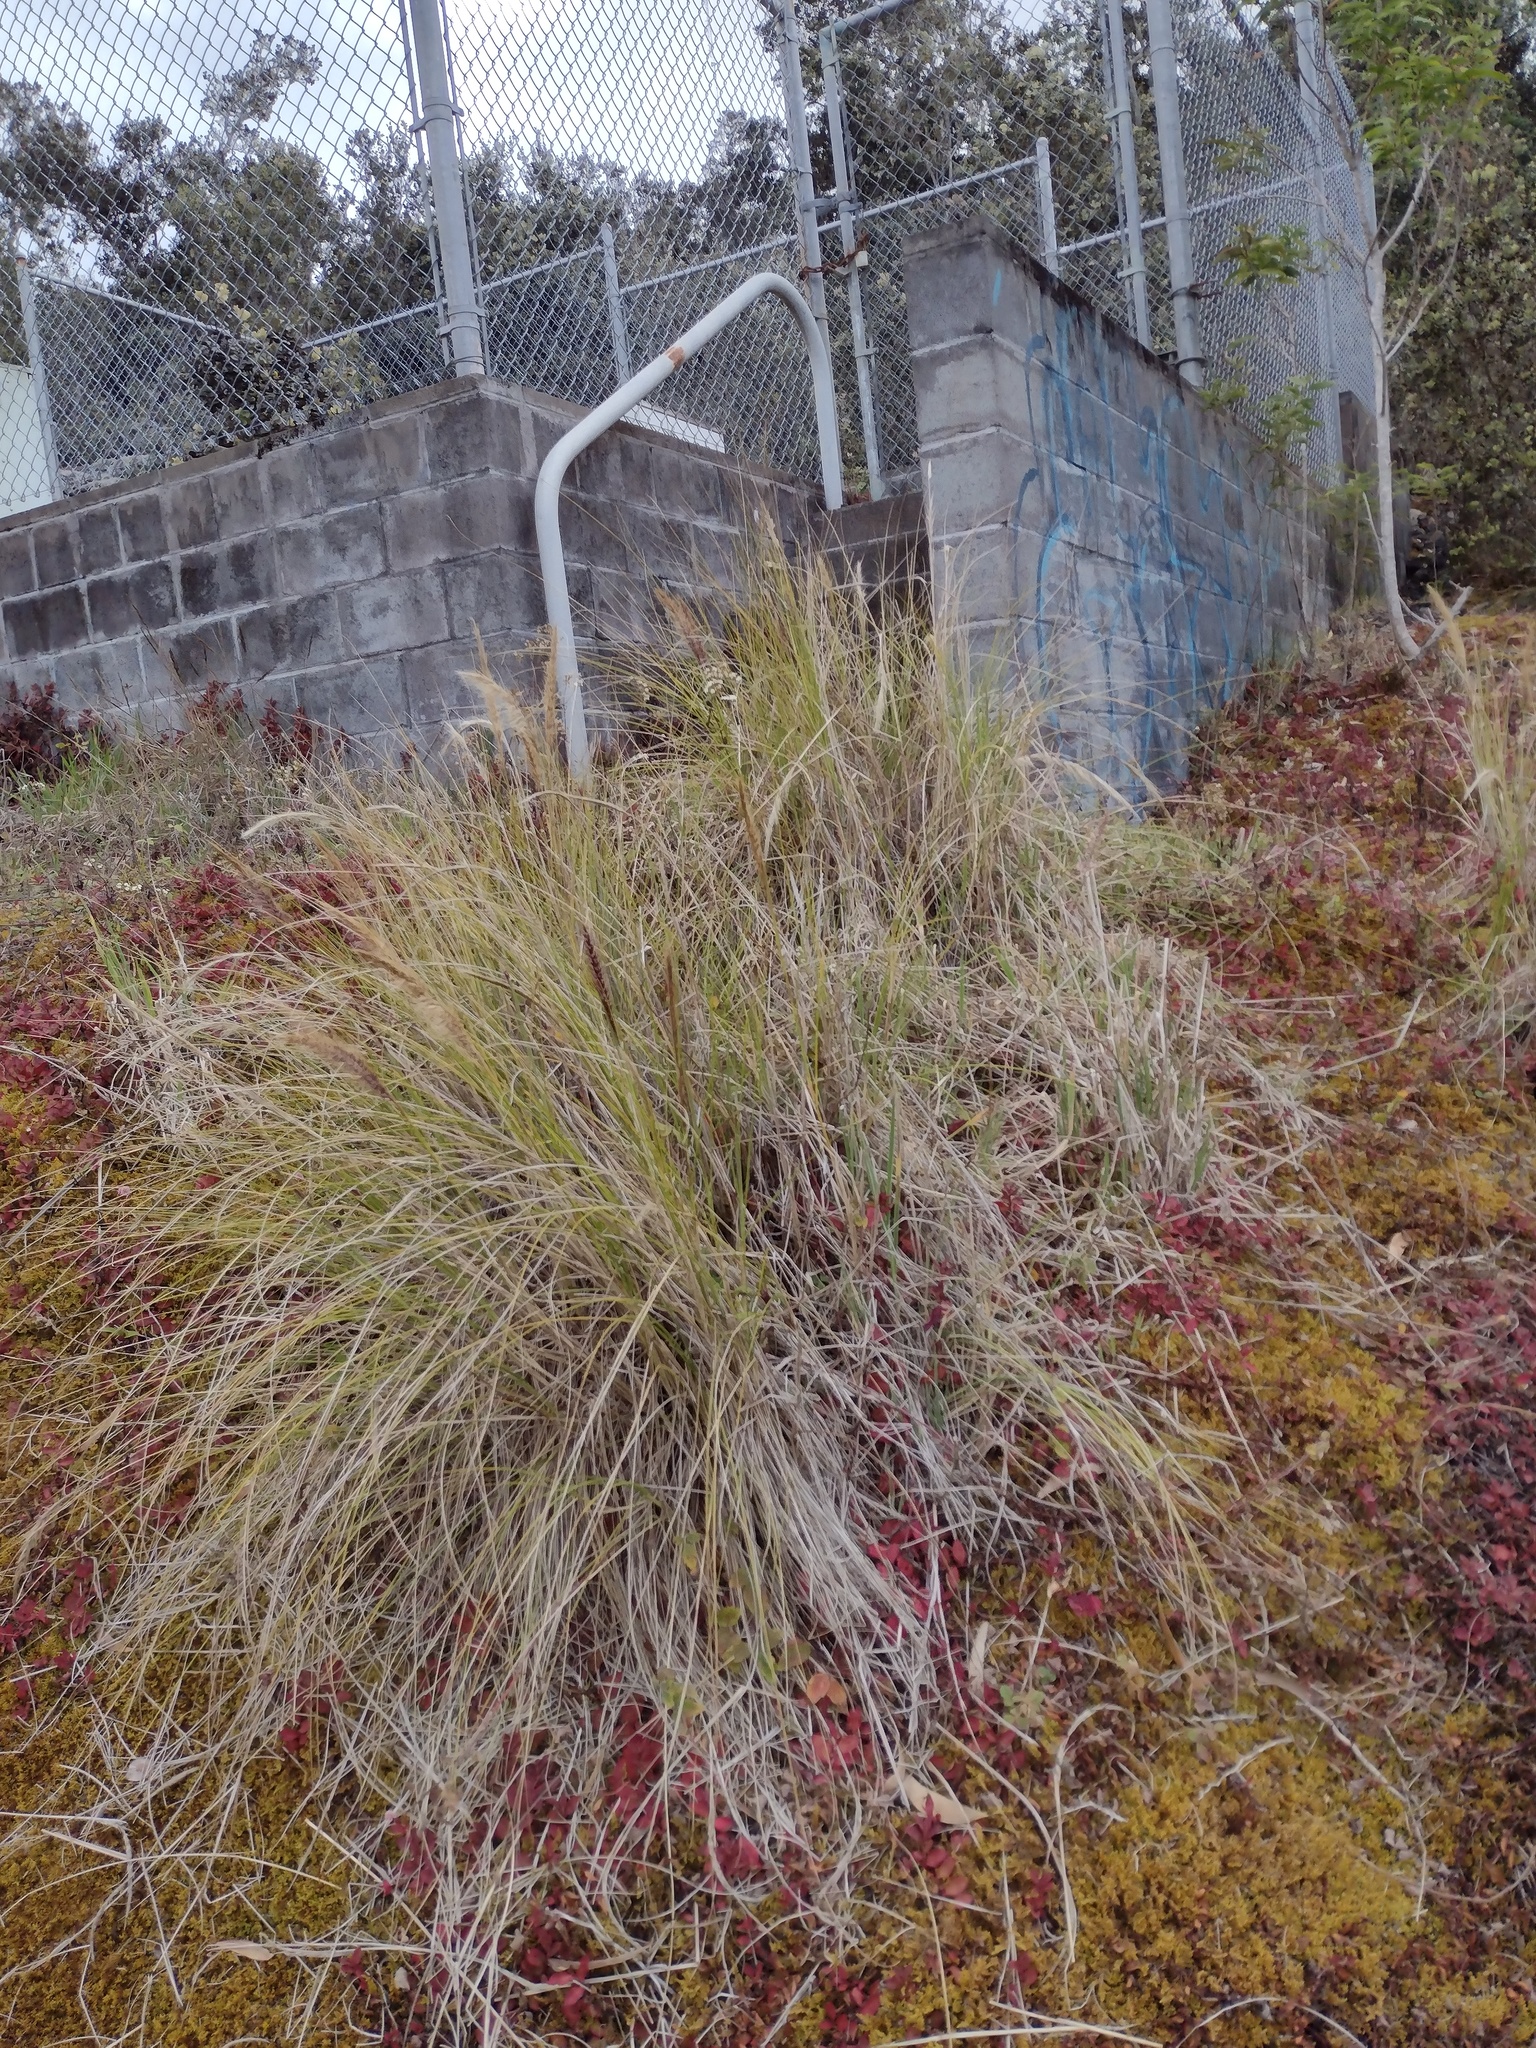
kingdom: Plantae
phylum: Tracheophyta
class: Liliopsida
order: Poales
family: Poaceae
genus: Cenchrus
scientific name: Cenchrus setaceus
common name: Crimson fountaingrass
